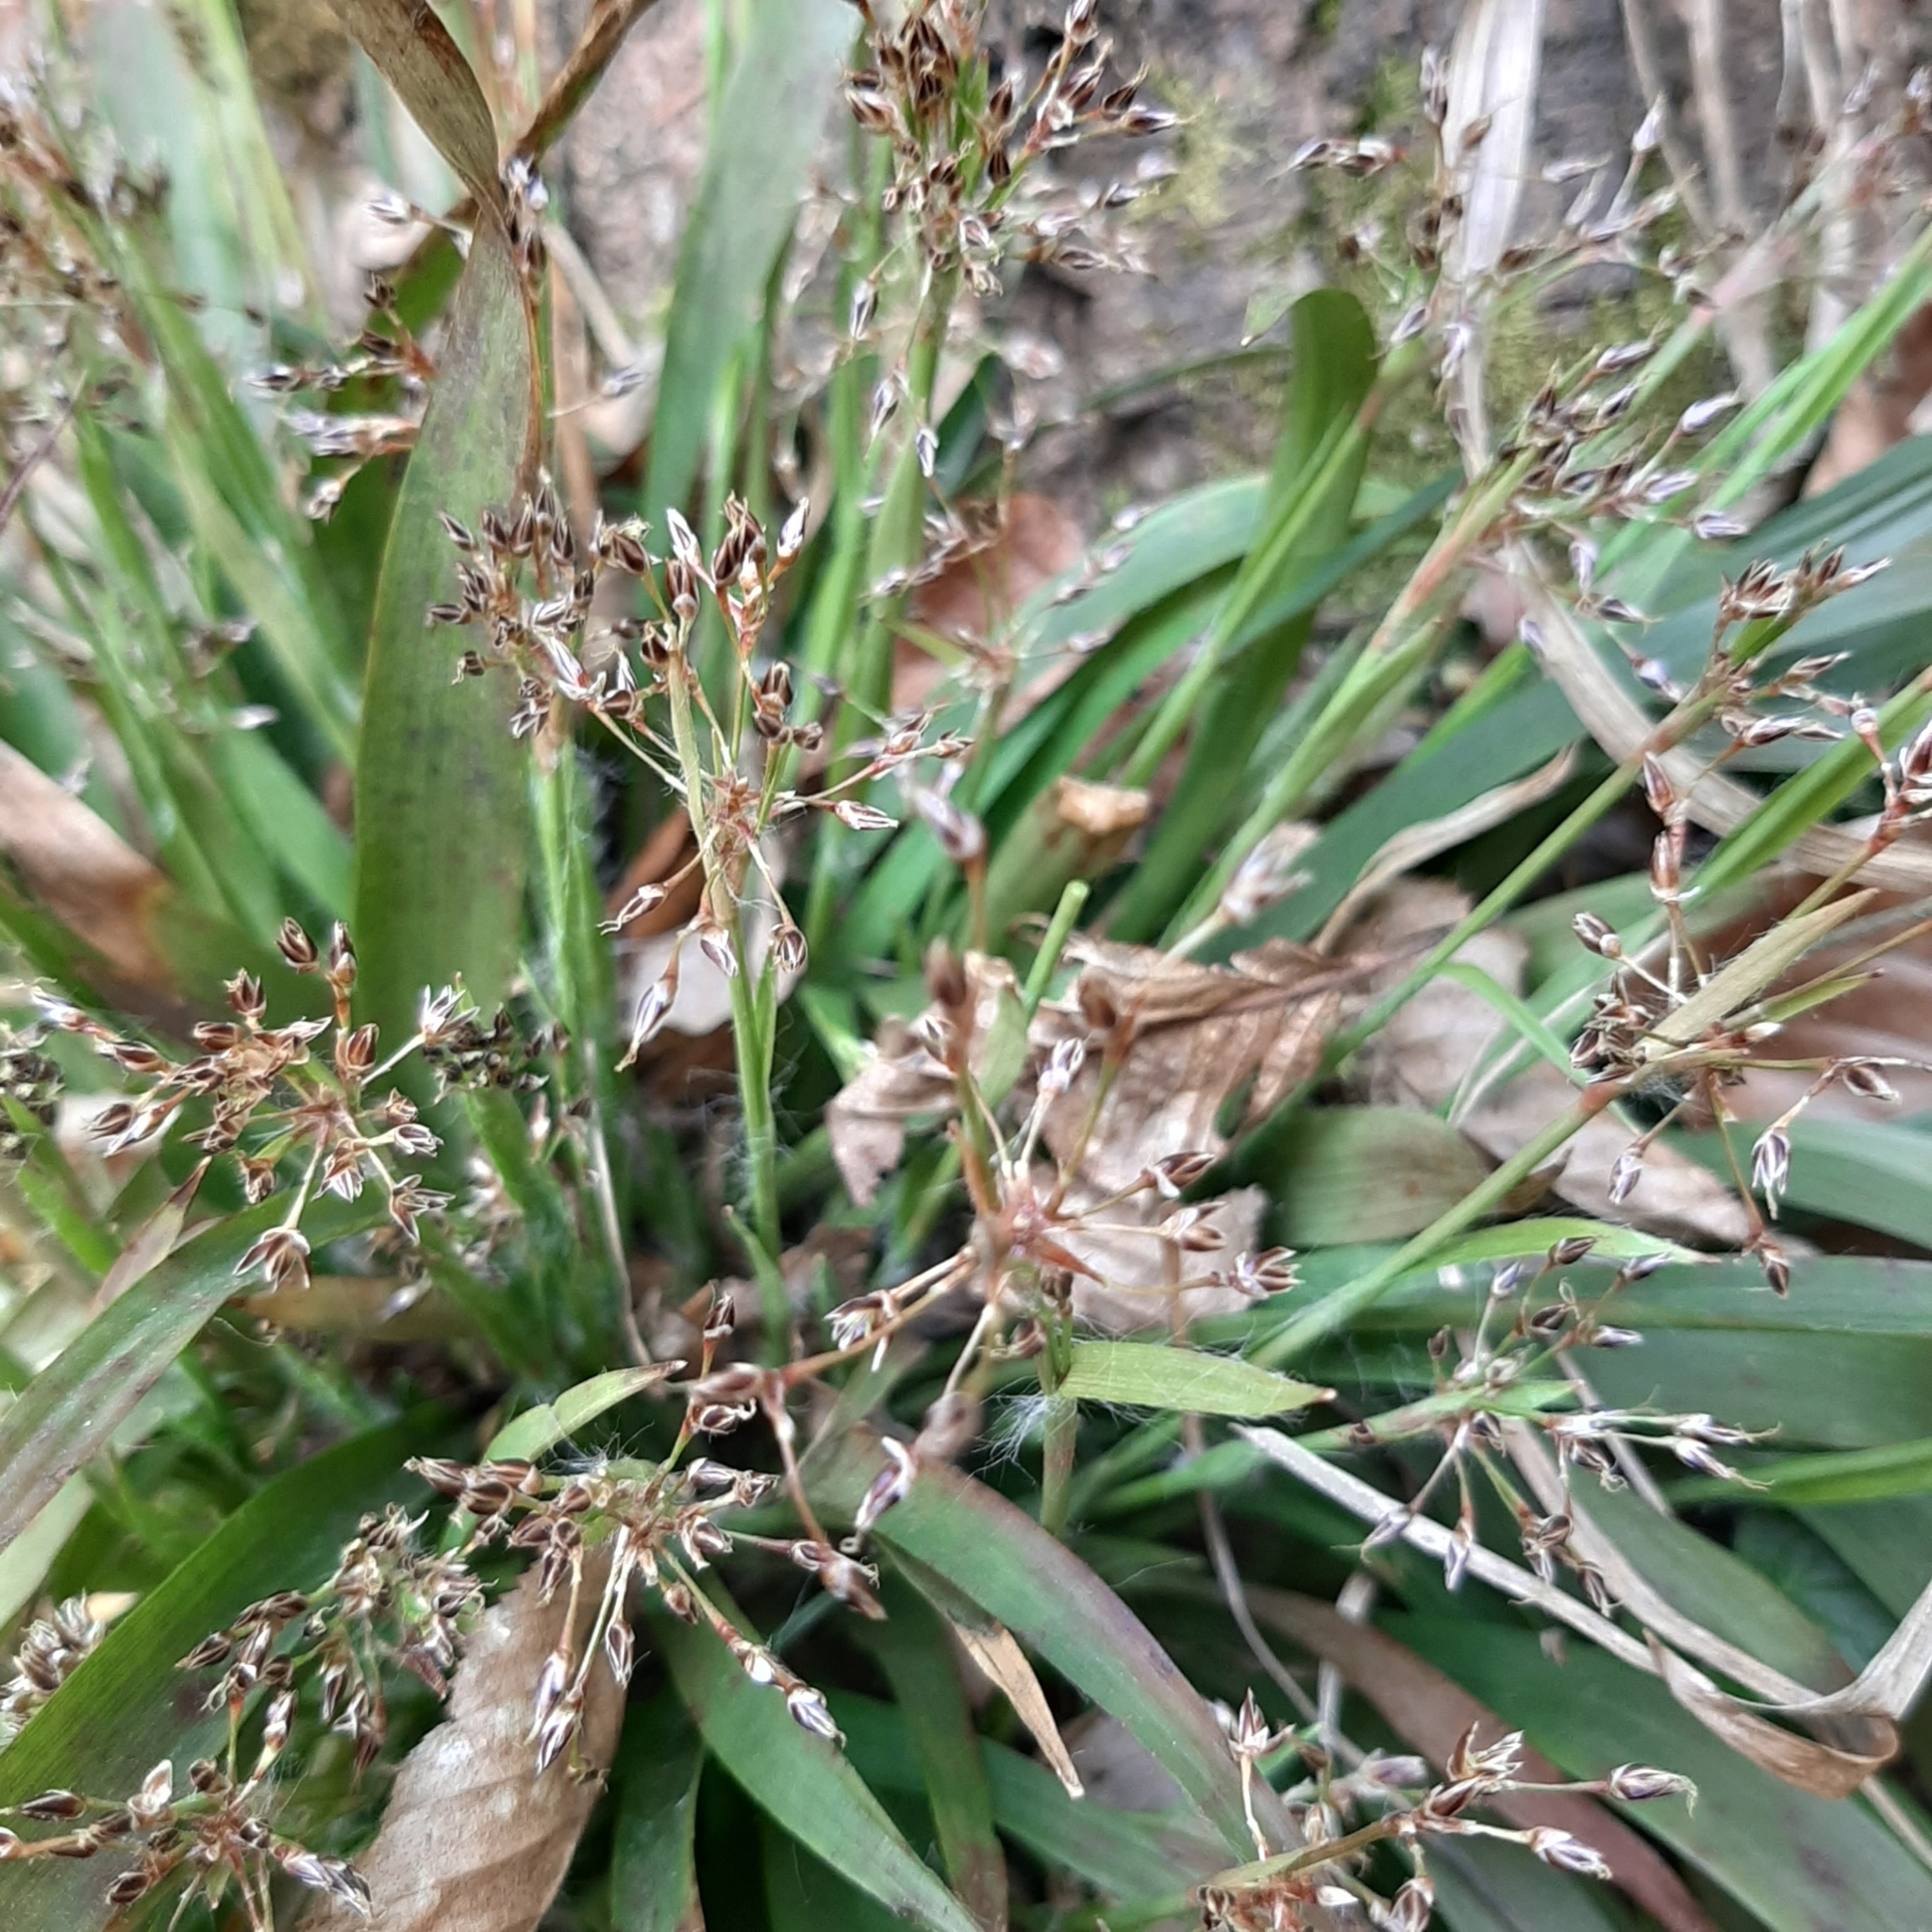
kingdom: Plantae
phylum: Tracheophyta
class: Liliopsida
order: Poales
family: Juncaceae
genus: Luzula
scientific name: Luzula pilosa
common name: Hairy wood-rush
